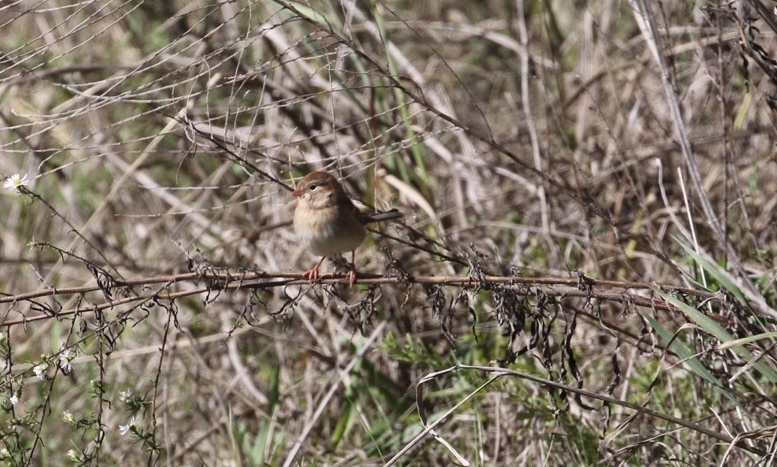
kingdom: Animalia
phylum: Chordata
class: Aves
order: Passeriformes
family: Passerellidae
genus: Spizella
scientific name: Spizella pusilla
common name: Field sparrow
